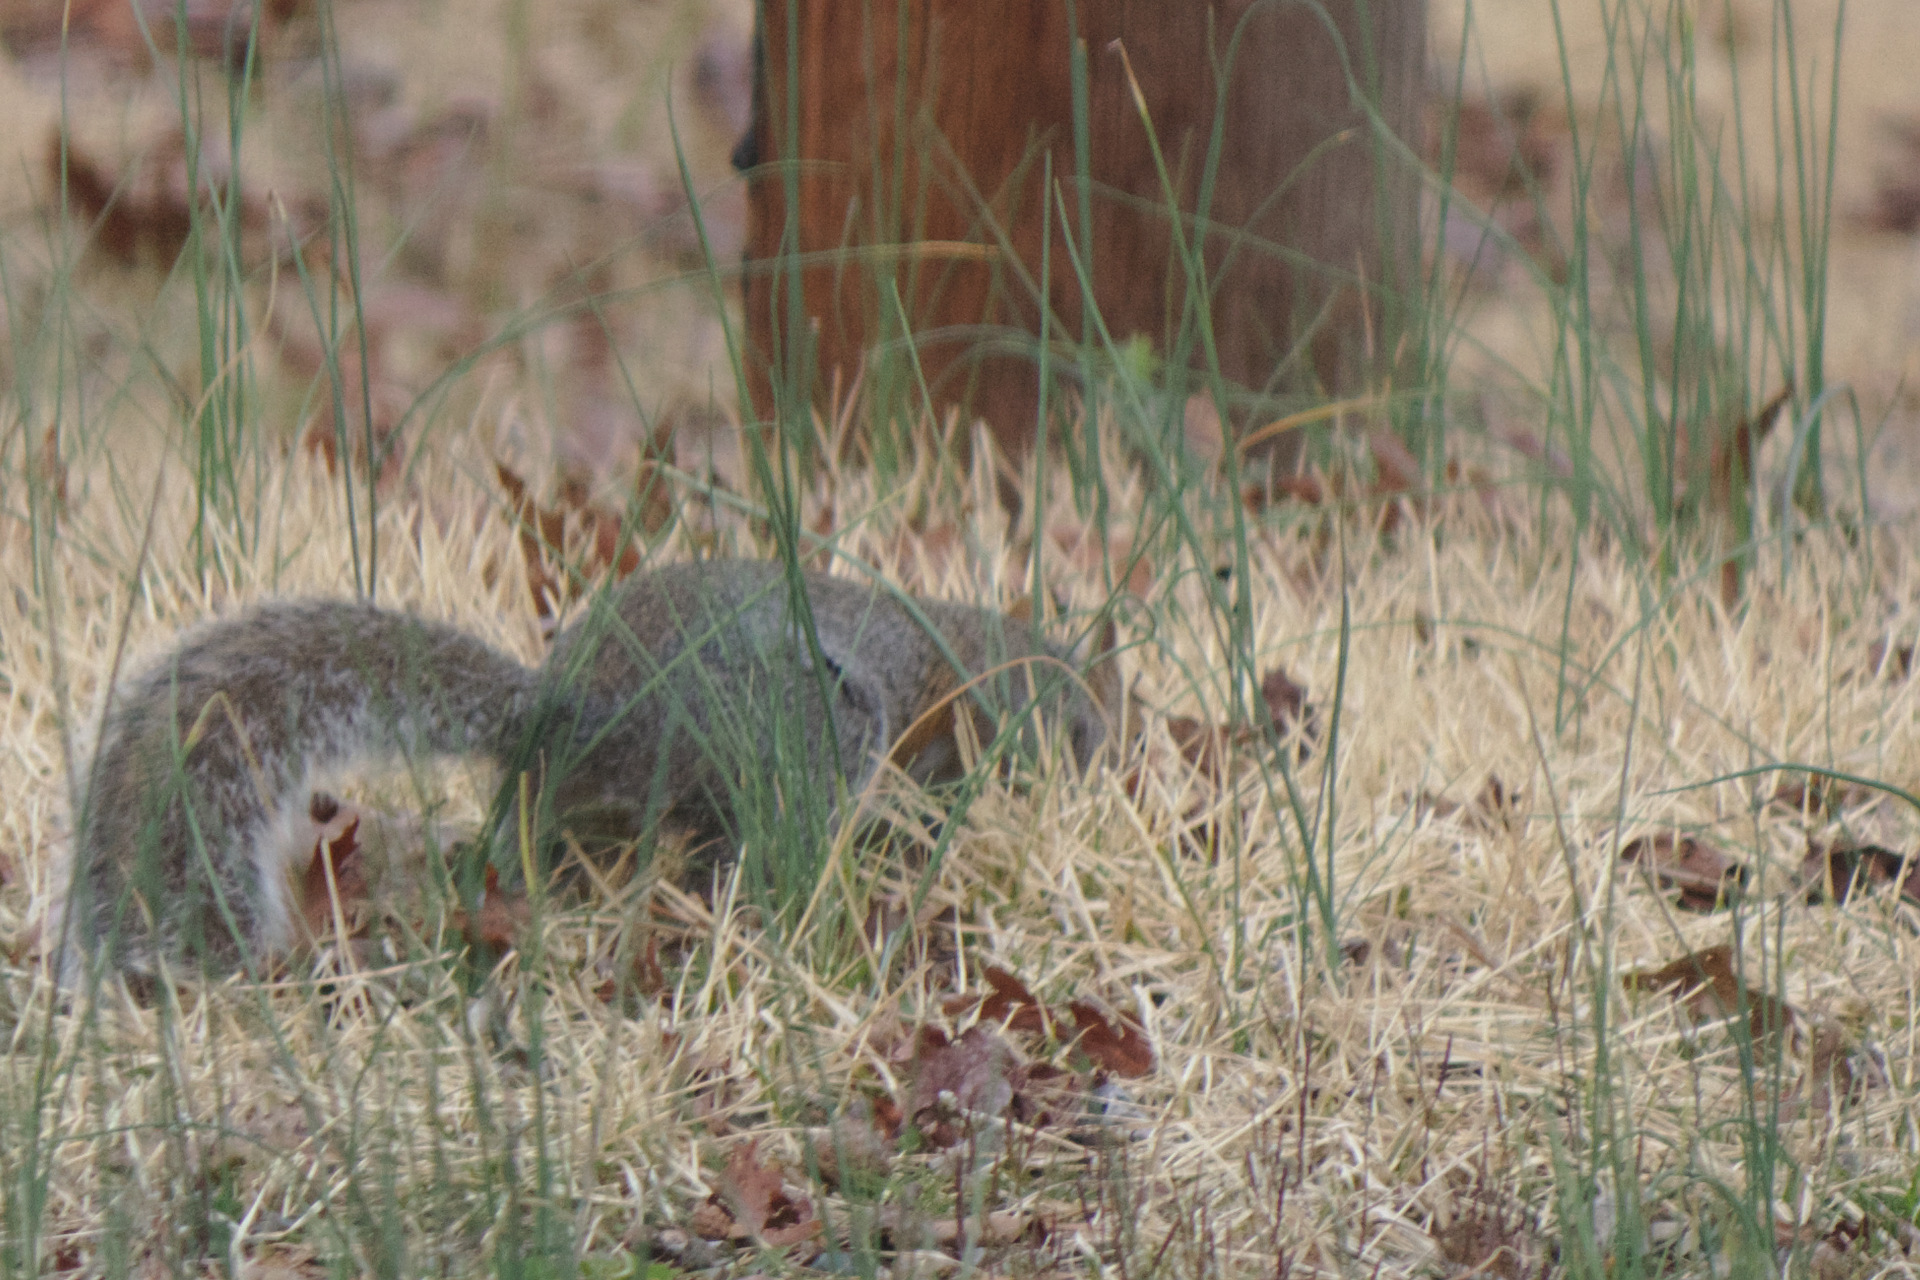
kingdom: Animalia
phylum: Chordata
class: Mammalia
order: Rodentia
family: Sciuridae
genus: Sciurus
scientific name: Sciurus carolinensis
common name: Eastern gray squirrel
